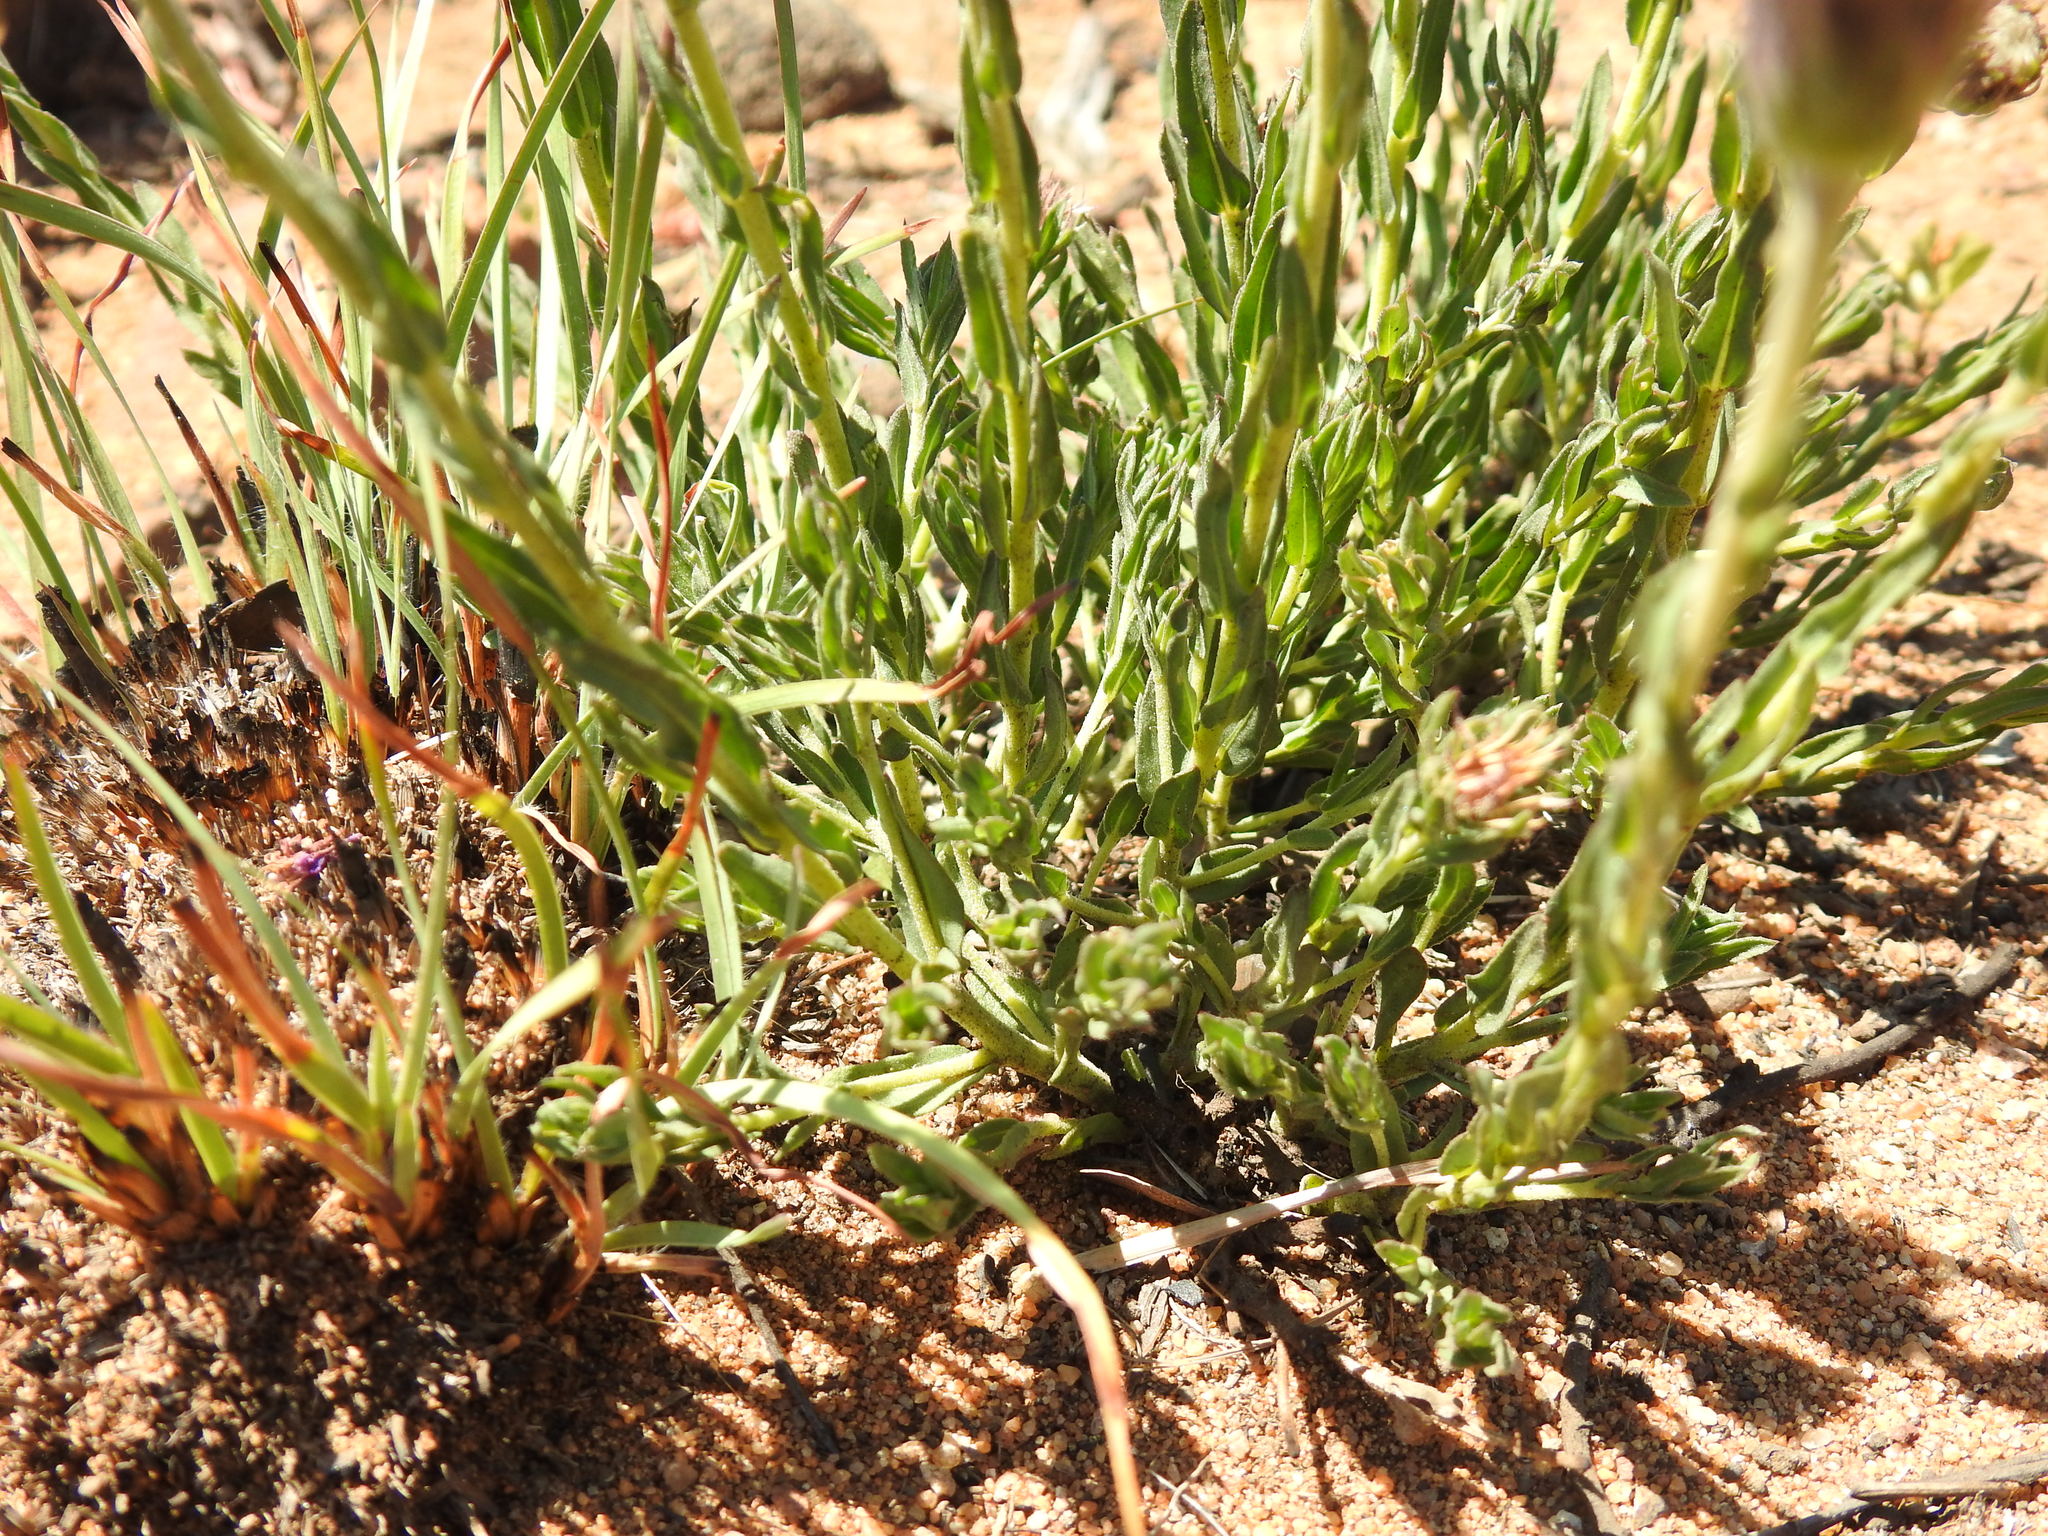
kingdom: Plantae
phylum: Tracheophyta
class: Magnoliopsida
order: Asterales
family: Asteraceae
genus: Pseudopegolettia
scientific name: Pseudopegolettia tenella
